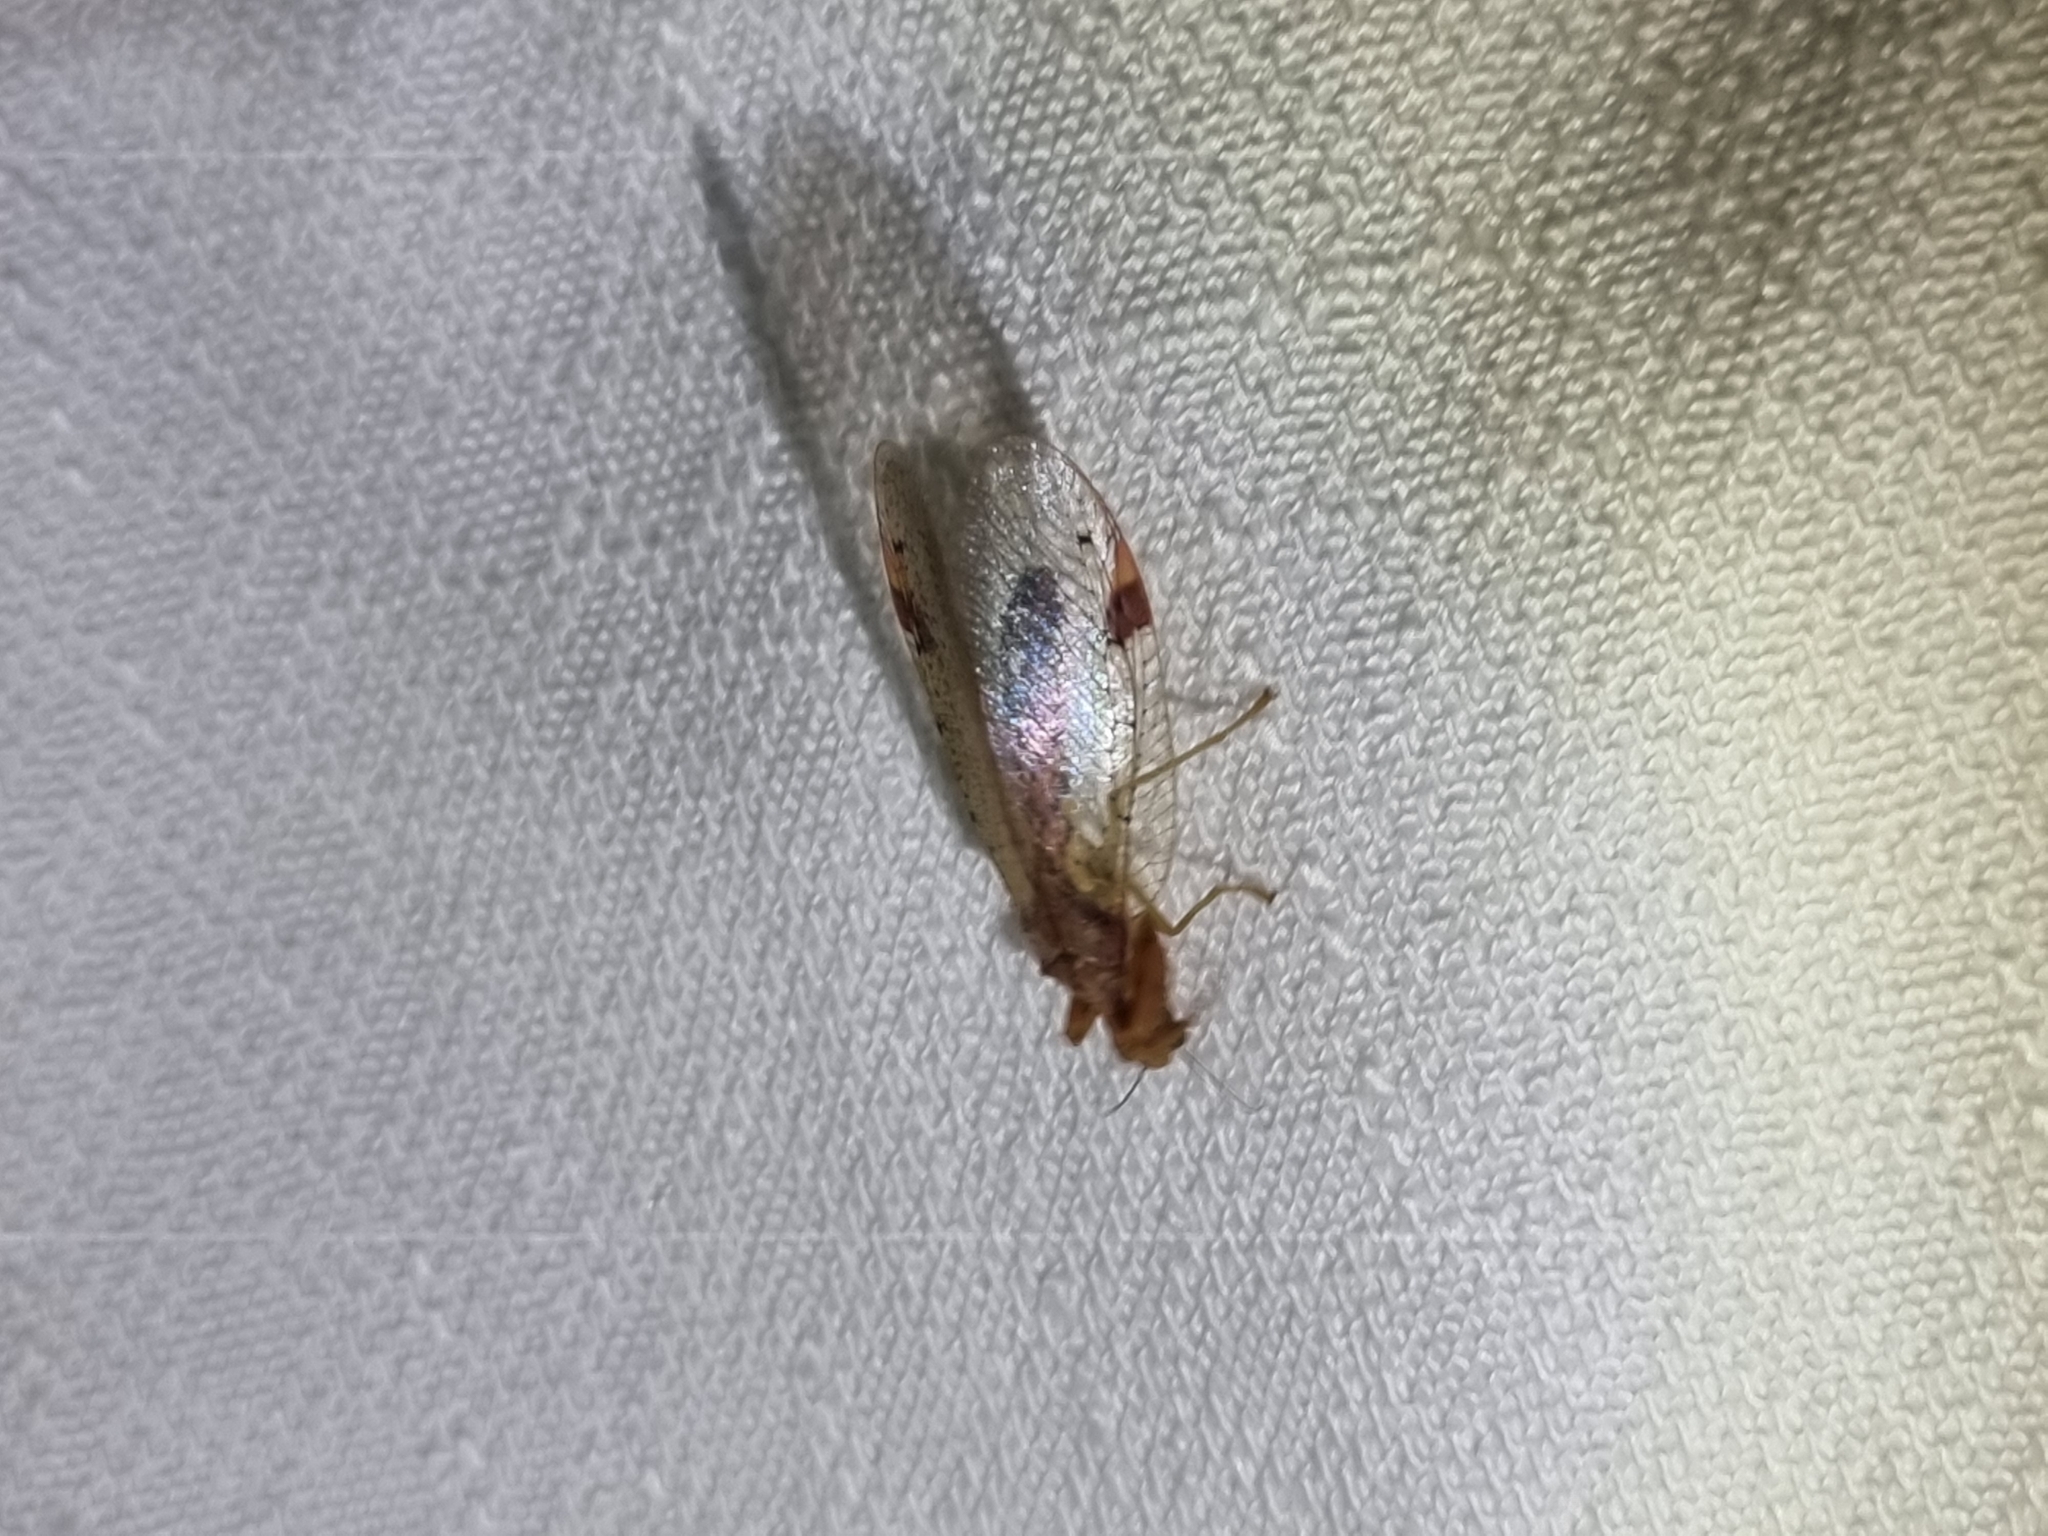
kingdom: Animalia
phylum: Arthropoda
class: Insecta
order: Neuroptera
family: Mantispidae
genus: Ditaxis
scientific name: Ditaxis biseriata
